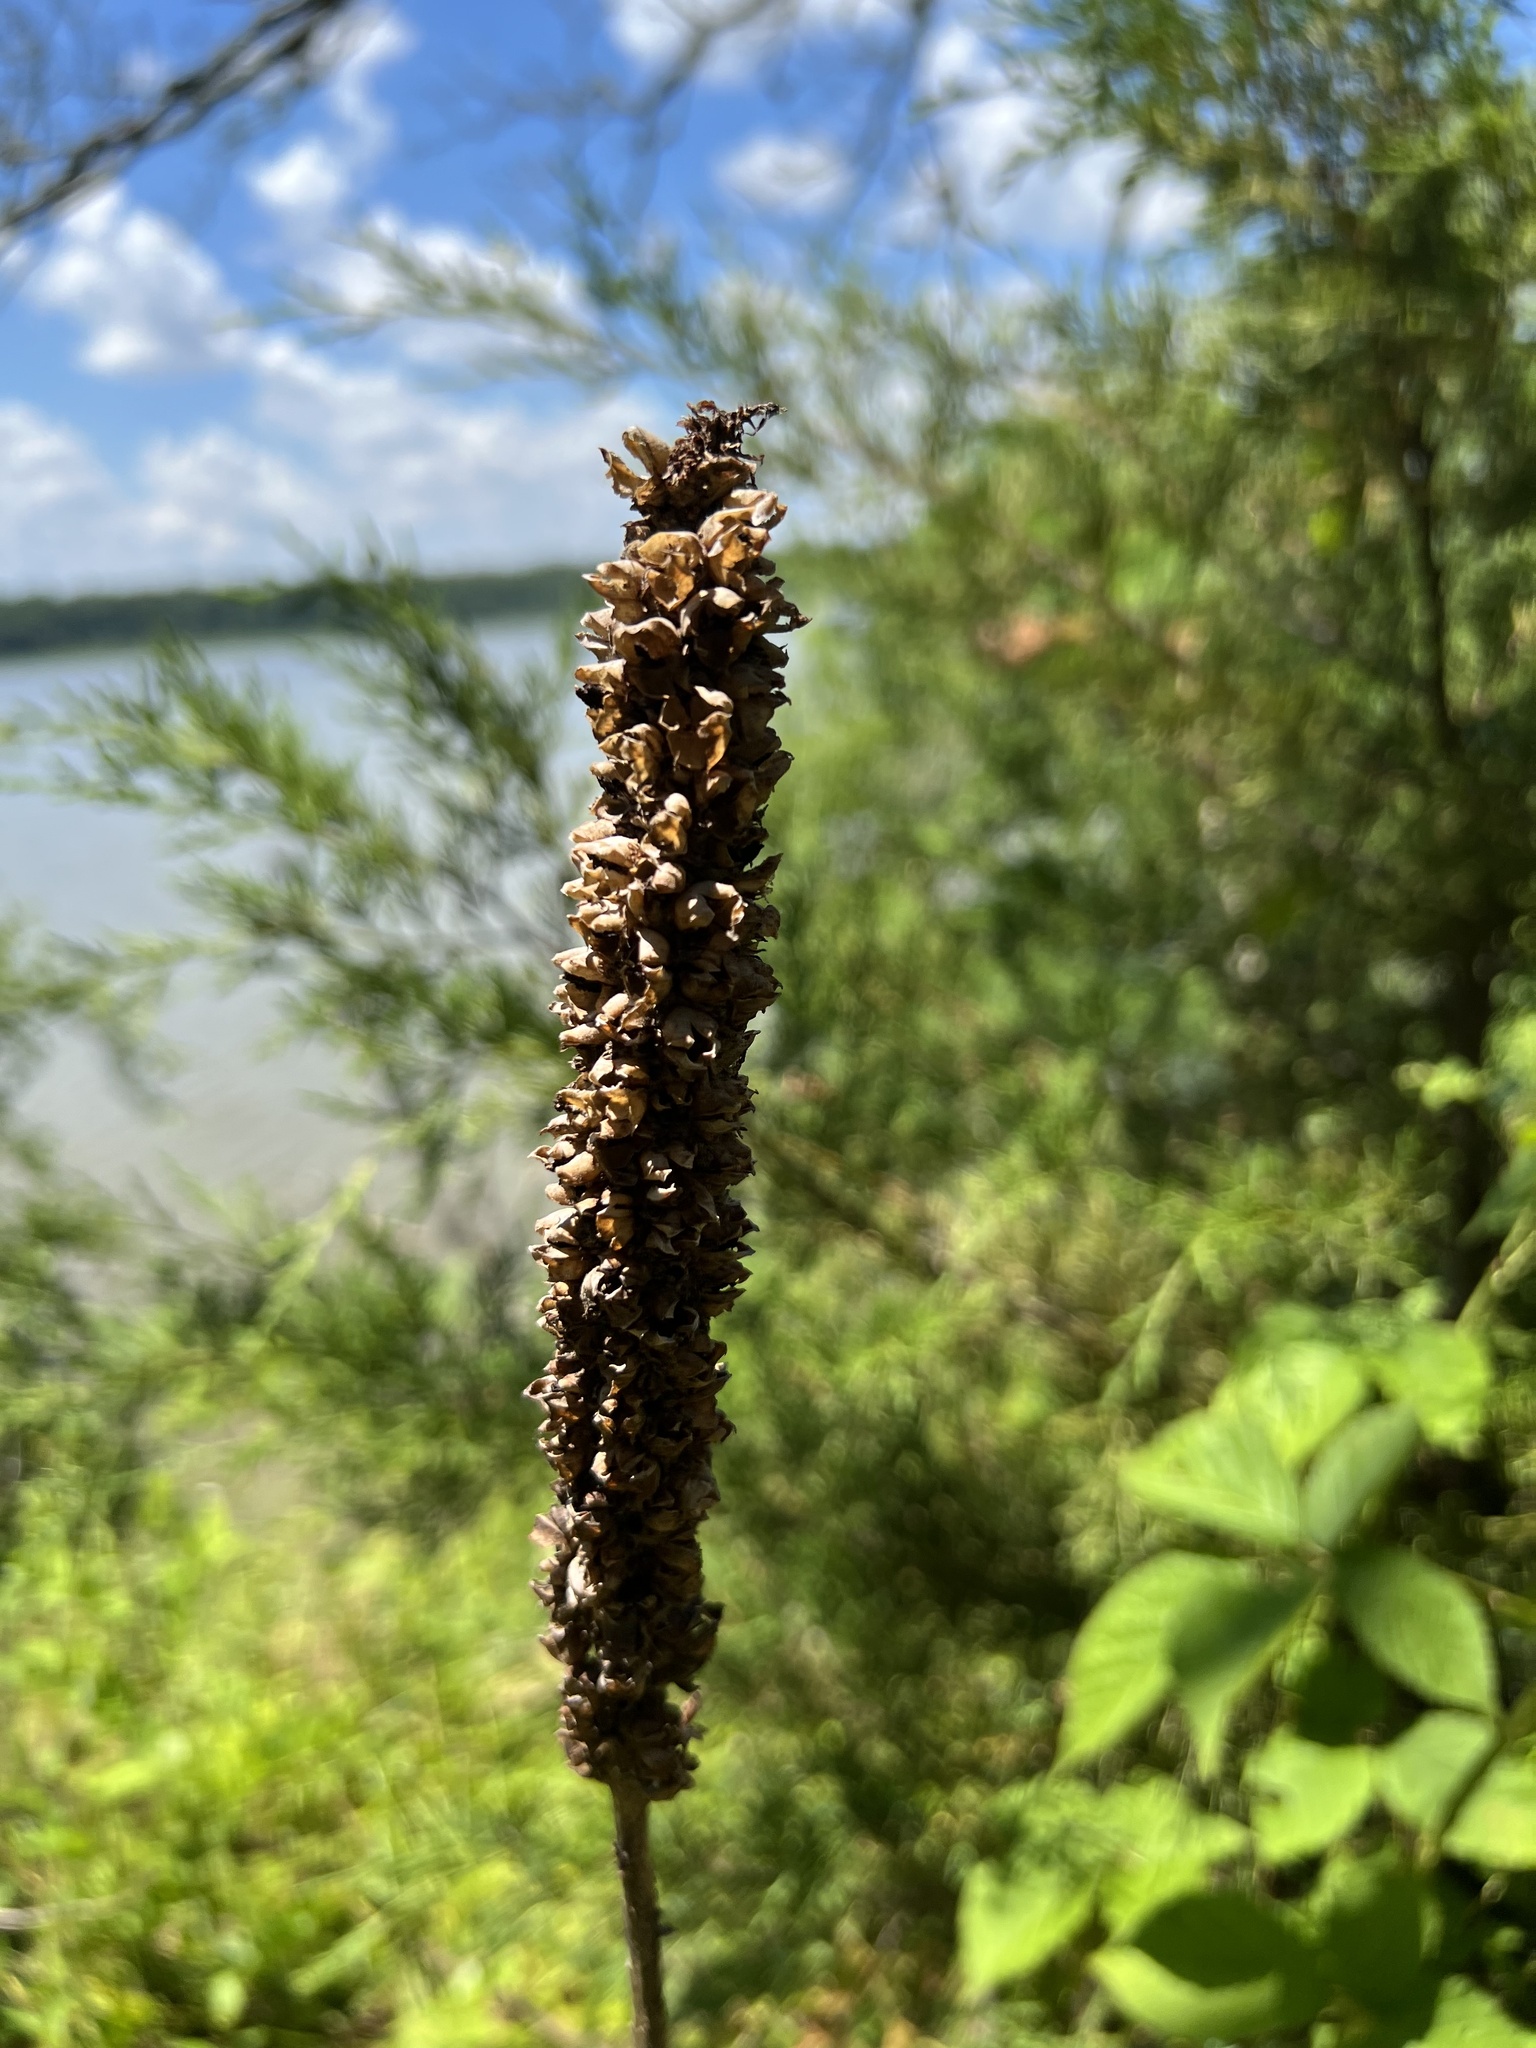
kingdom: Plantae
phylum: Tracheophyta
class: Magnoliopsida
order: Lamiales
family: Scrophulariaceae
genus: Verbascum
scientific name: Verbascum thapsus
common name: Common mullein
